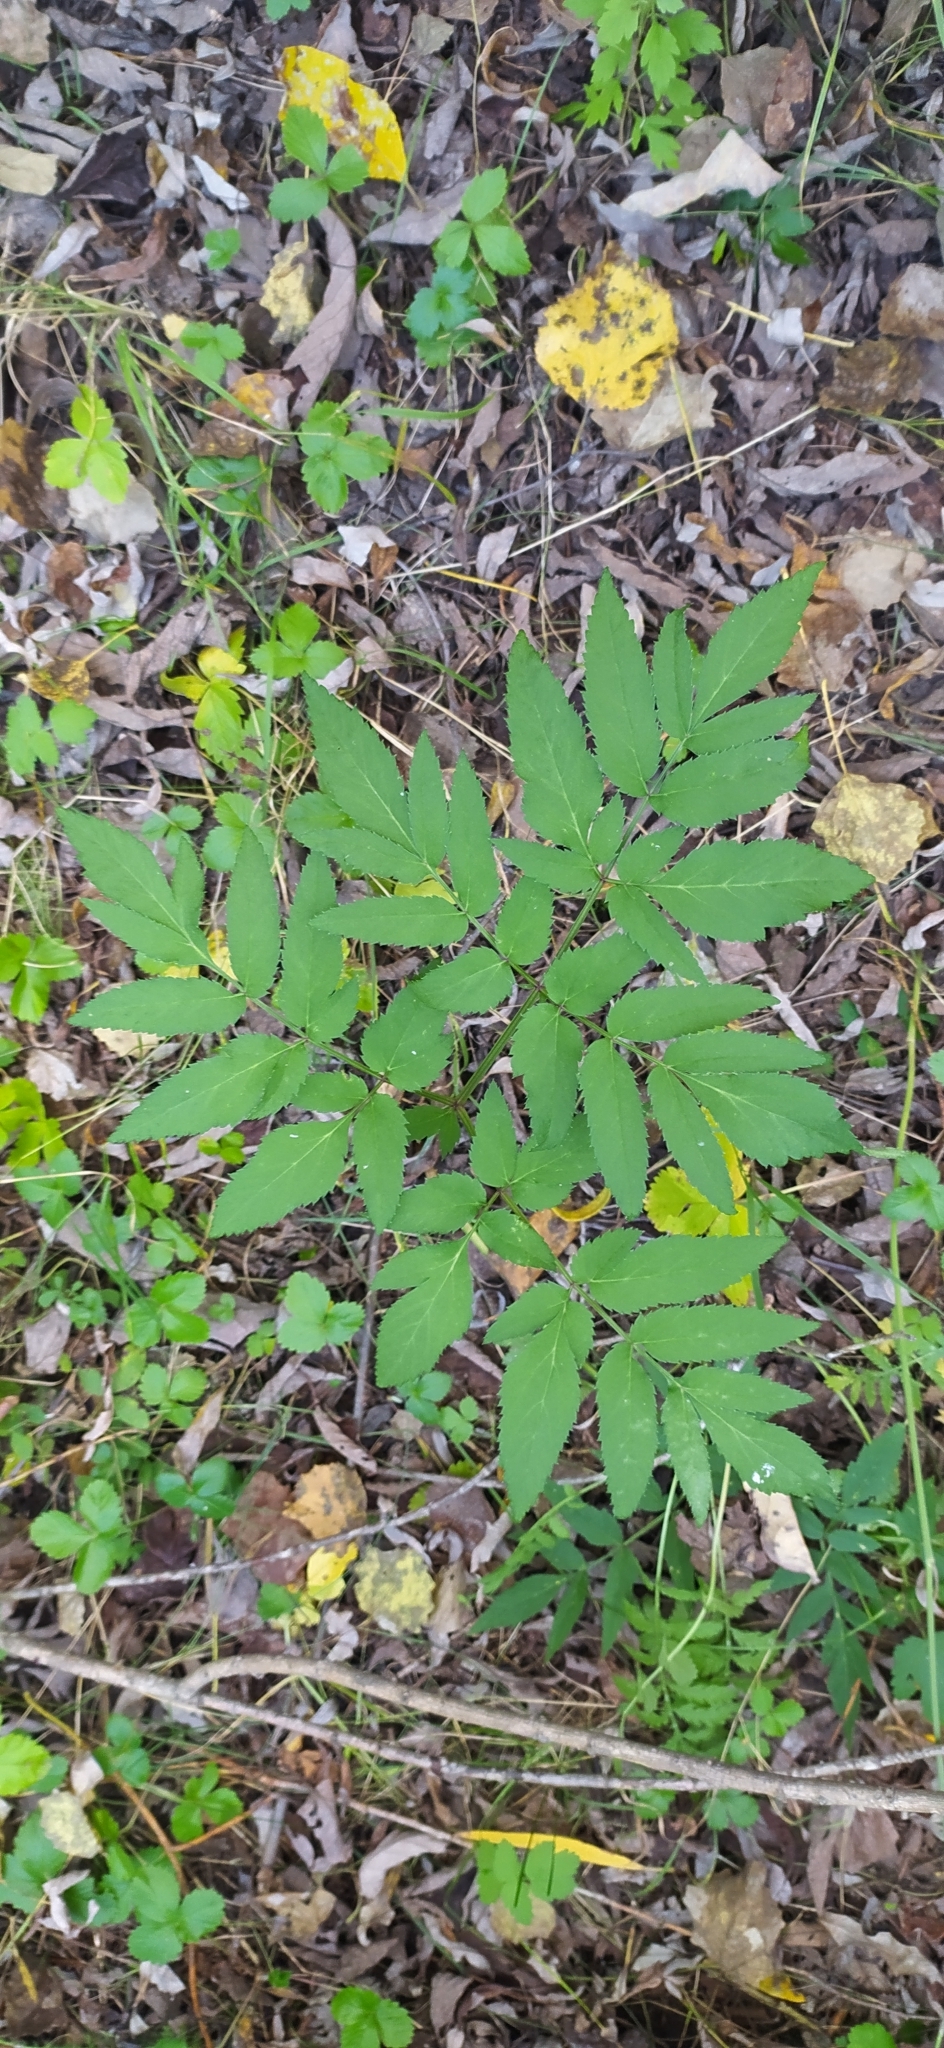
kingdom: Plantae
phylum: Tracheophyta
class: Magnoliopsida
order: Apiales
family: Apiaceae
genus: Angelica
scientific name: Angelica sylvestris
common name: Wild angelica
